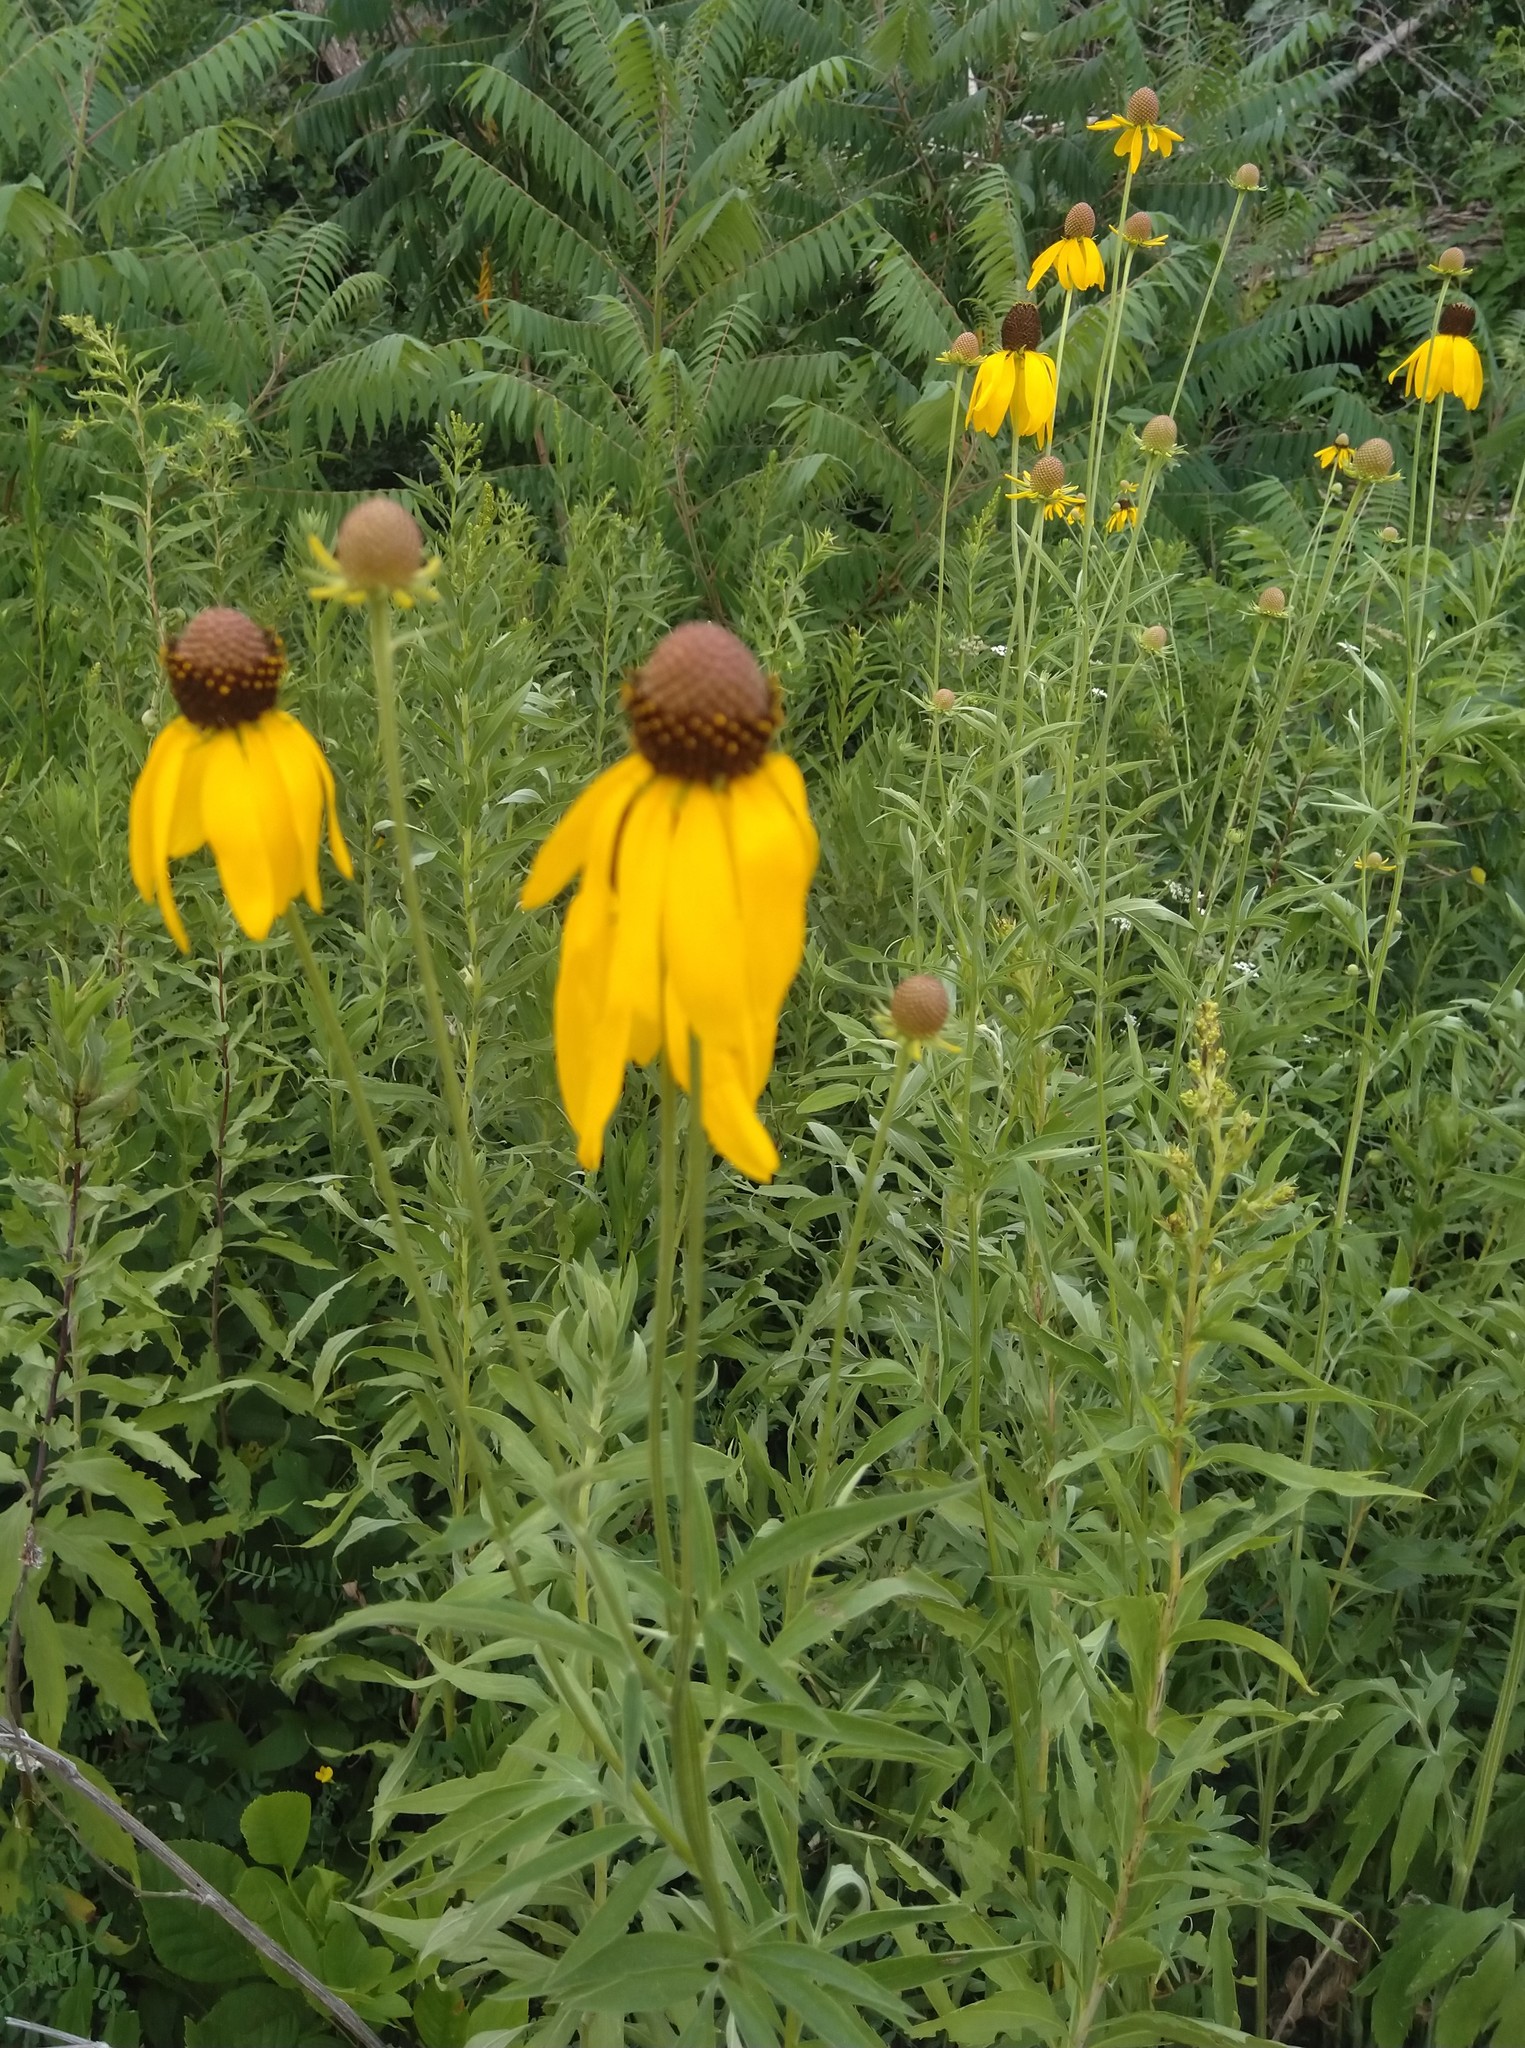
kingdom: Plantae
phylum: Tracheophyta
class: Magnoliopsida
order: Asterales
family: Asteraceae
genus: Ratibida
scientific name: Ratibida pinnata
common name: Drooping prairie-coneflower
